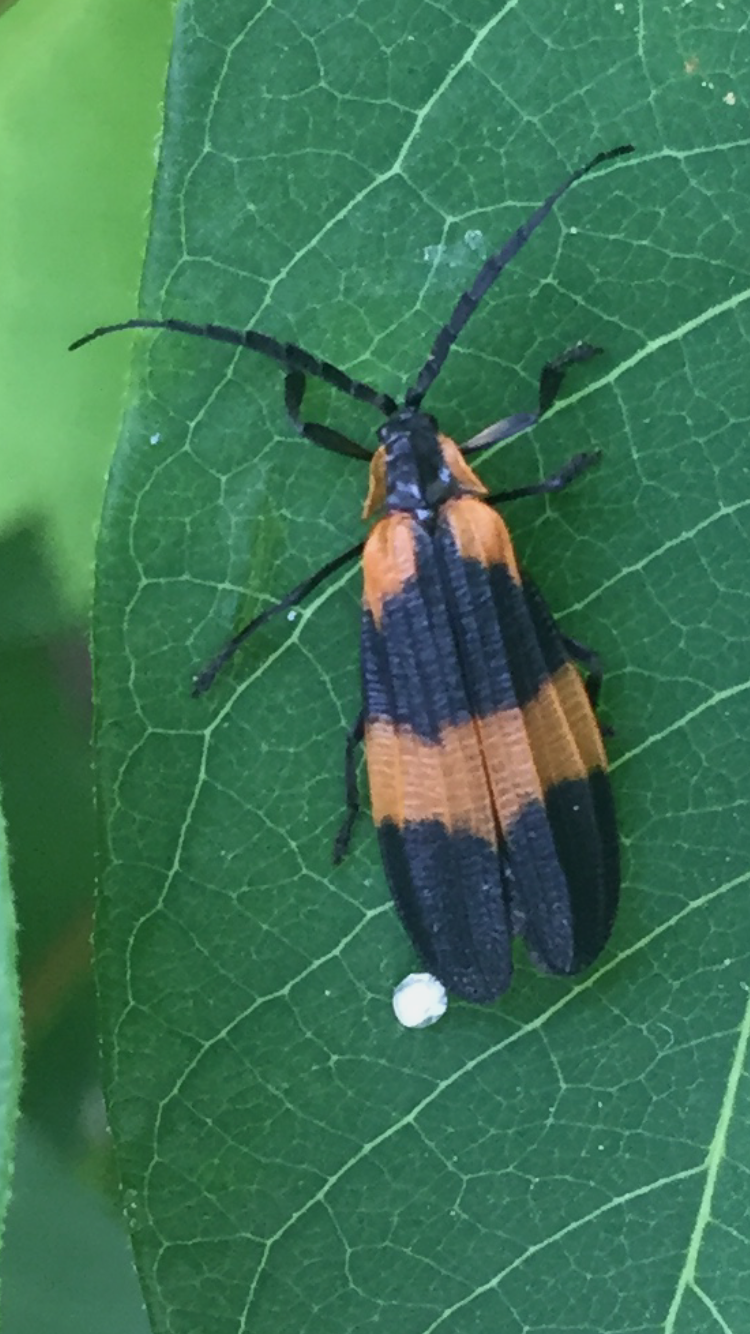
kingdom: Animalia
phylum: Arthropoda
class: Insecta
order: Coleoptera
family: Lycidae
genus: Calopteron
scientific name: Calopteron reticulatum
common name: Banded net-winged beetle
